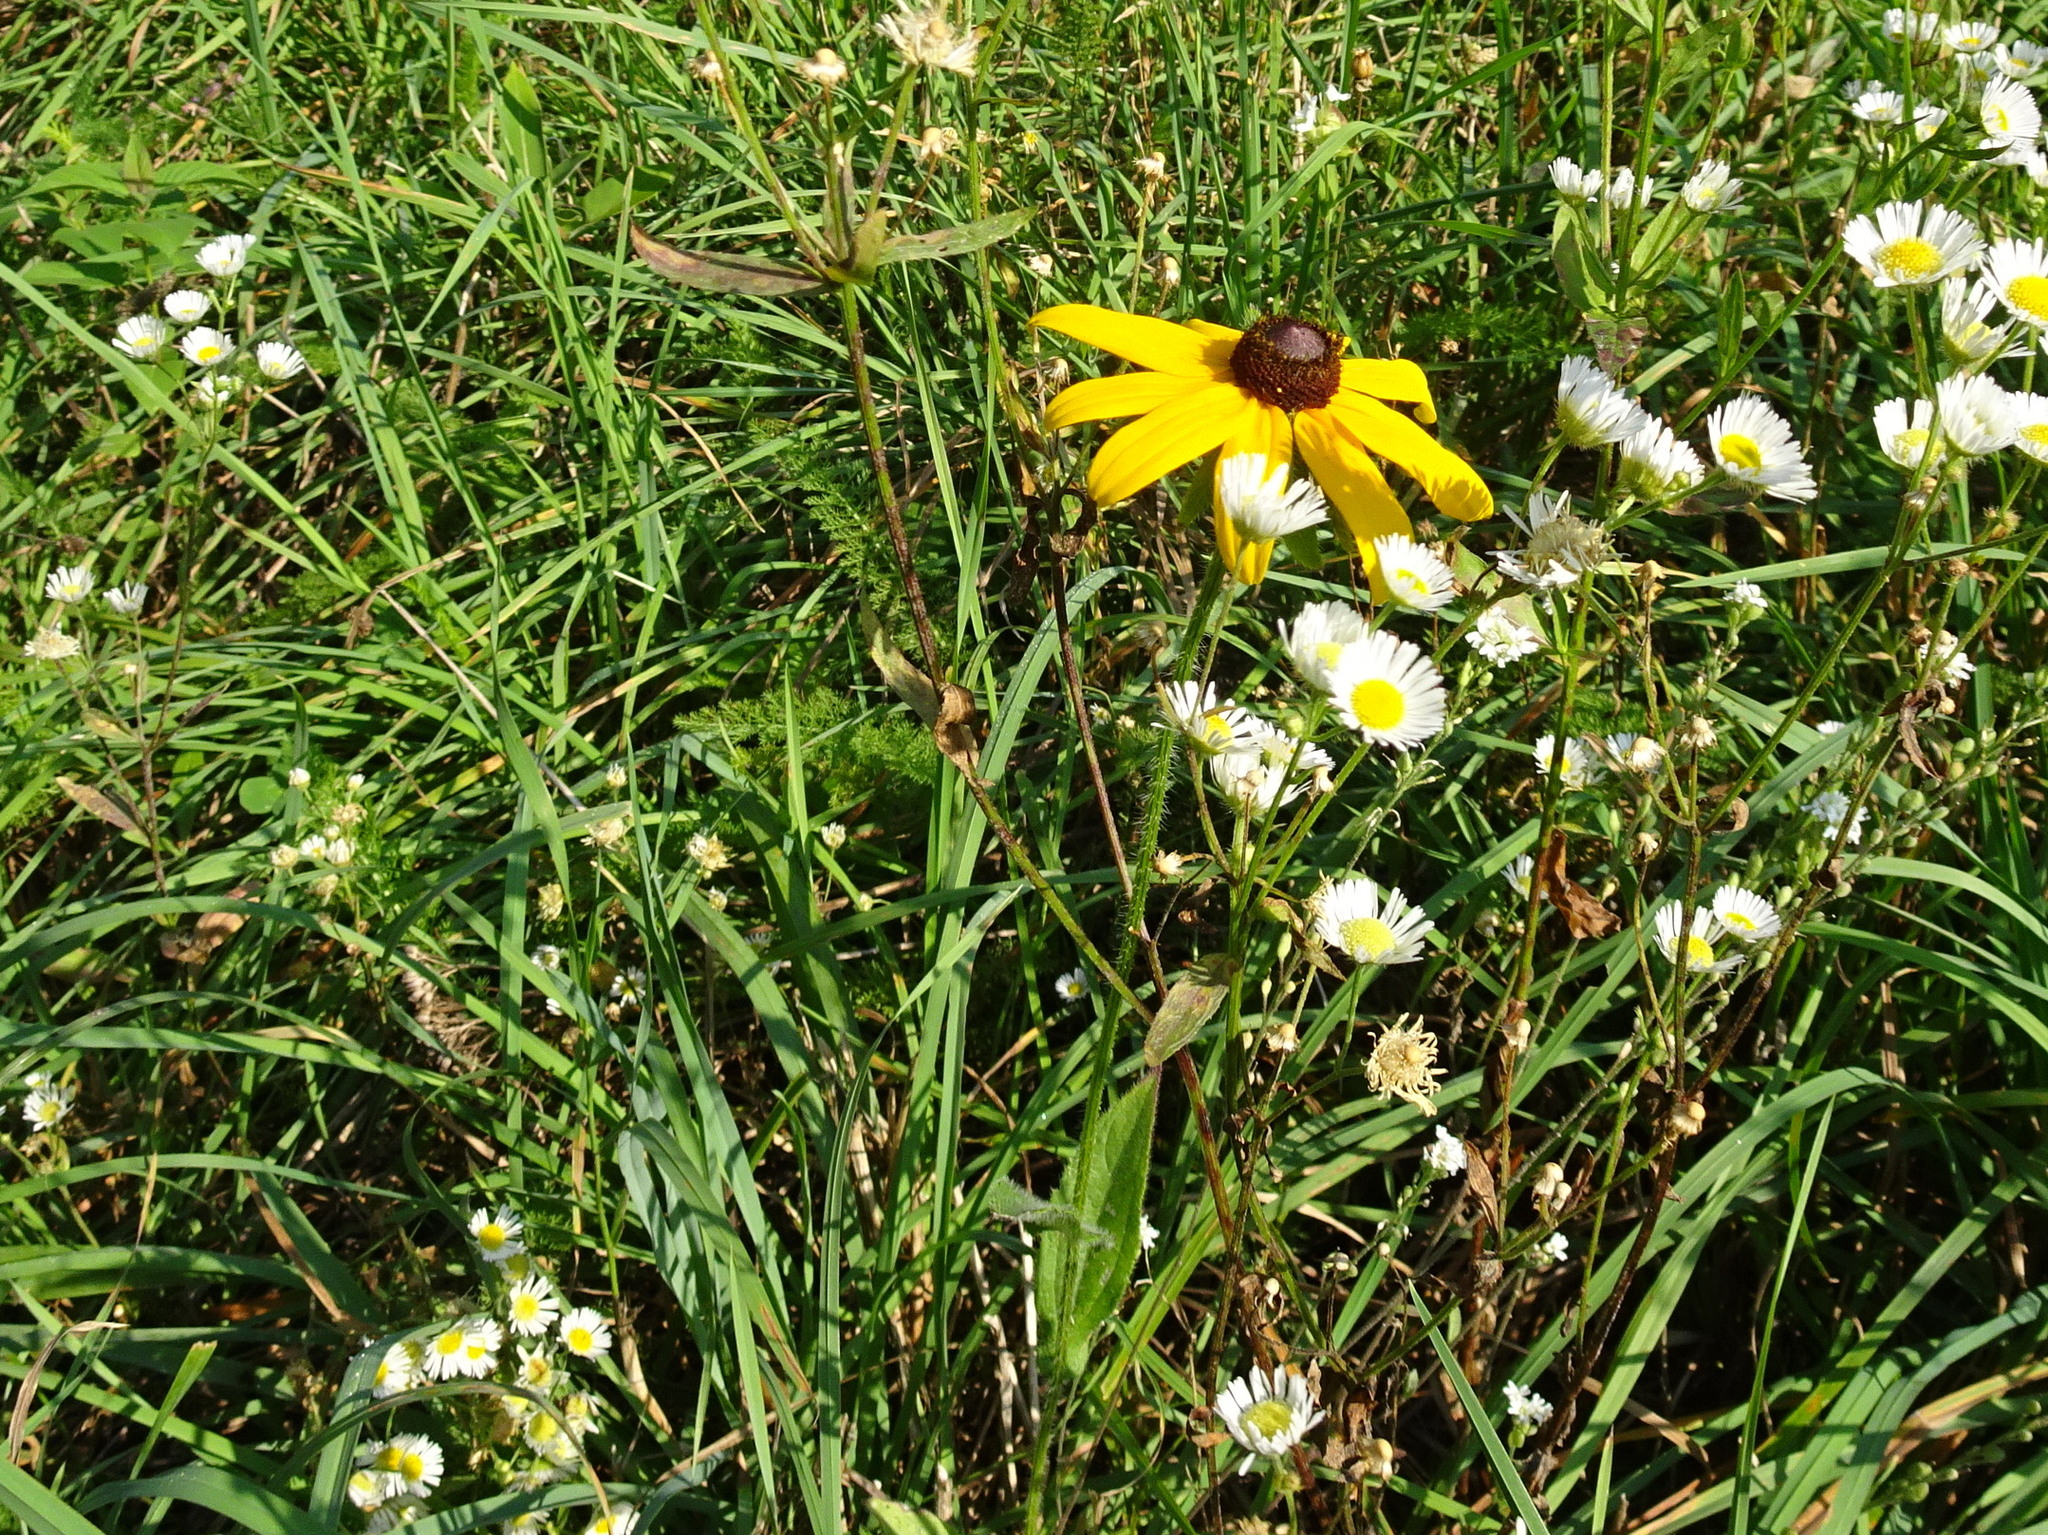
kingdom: Plantae
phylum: Tracheophyta
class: Magnoliopsida
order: Asterales
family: Asteraceae
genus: Rudbeckia
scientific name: Rudbeckia hirta
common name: Black-eyed-susan
